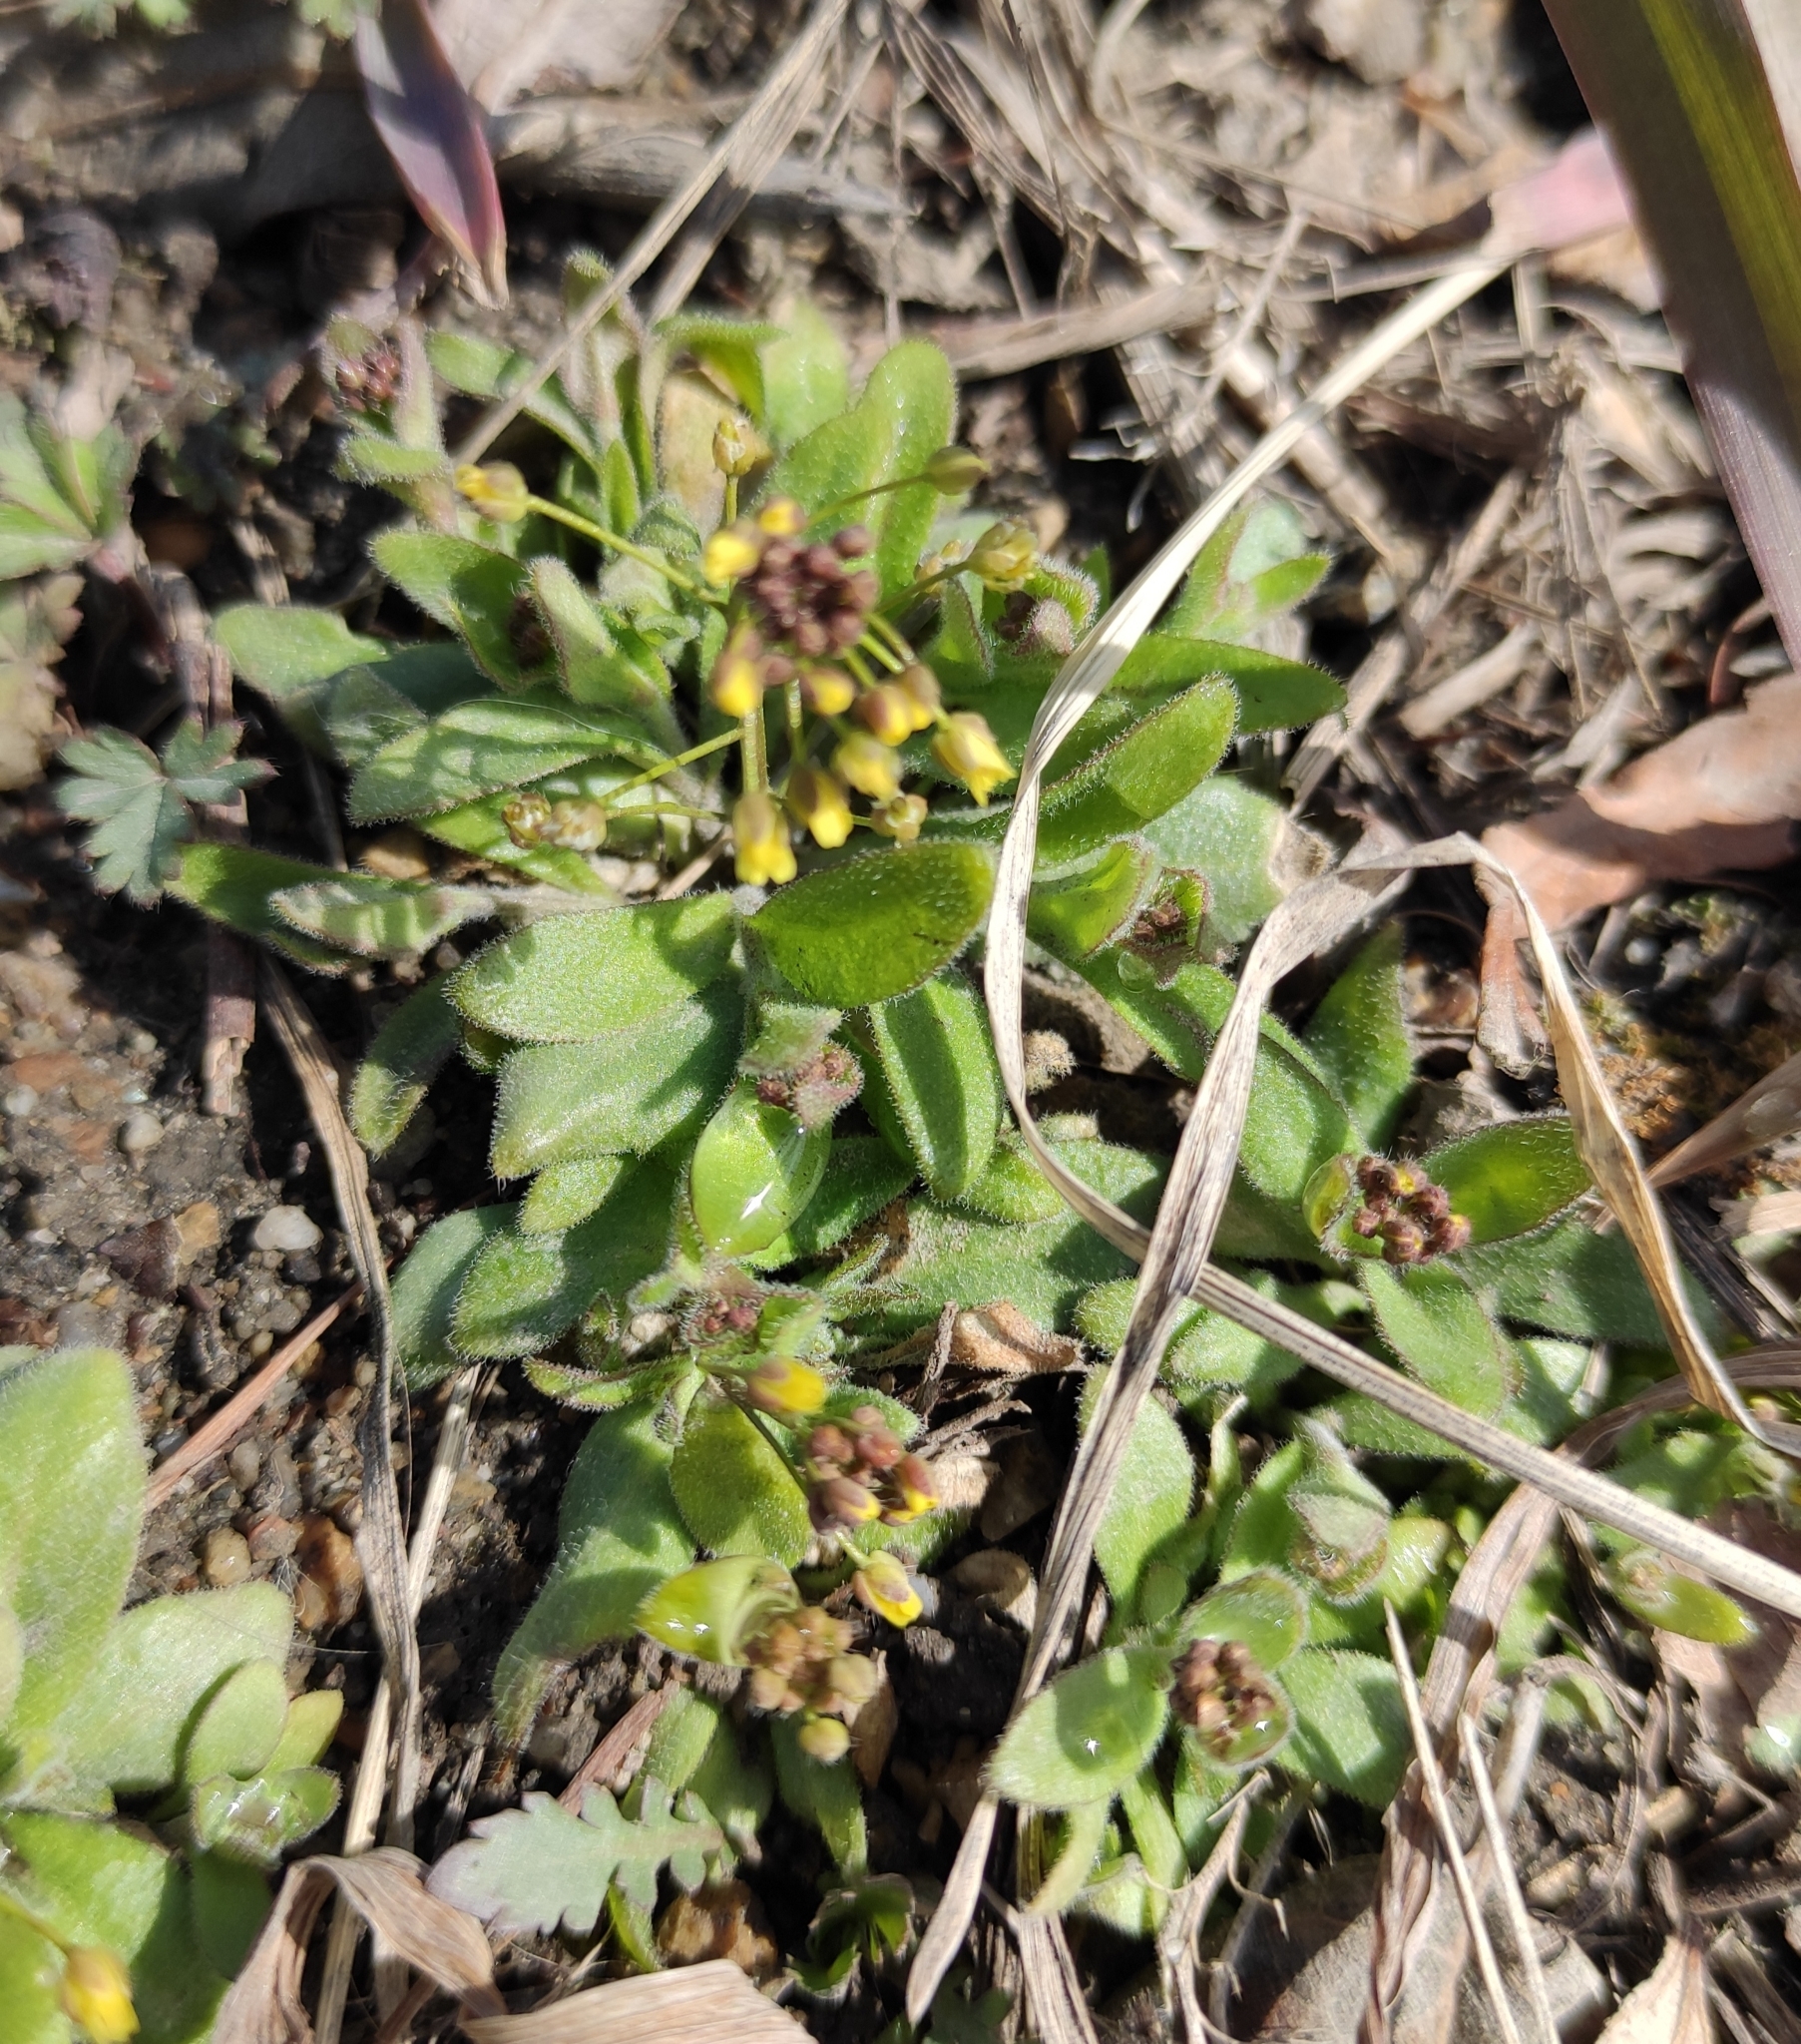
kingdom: Plantae
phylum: Tracheophyta
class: Magnoliopsida
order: Brassicales
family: Brassicaceae
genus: Draba
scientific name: Draba nemorosa
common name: Wood whitlow-grass
